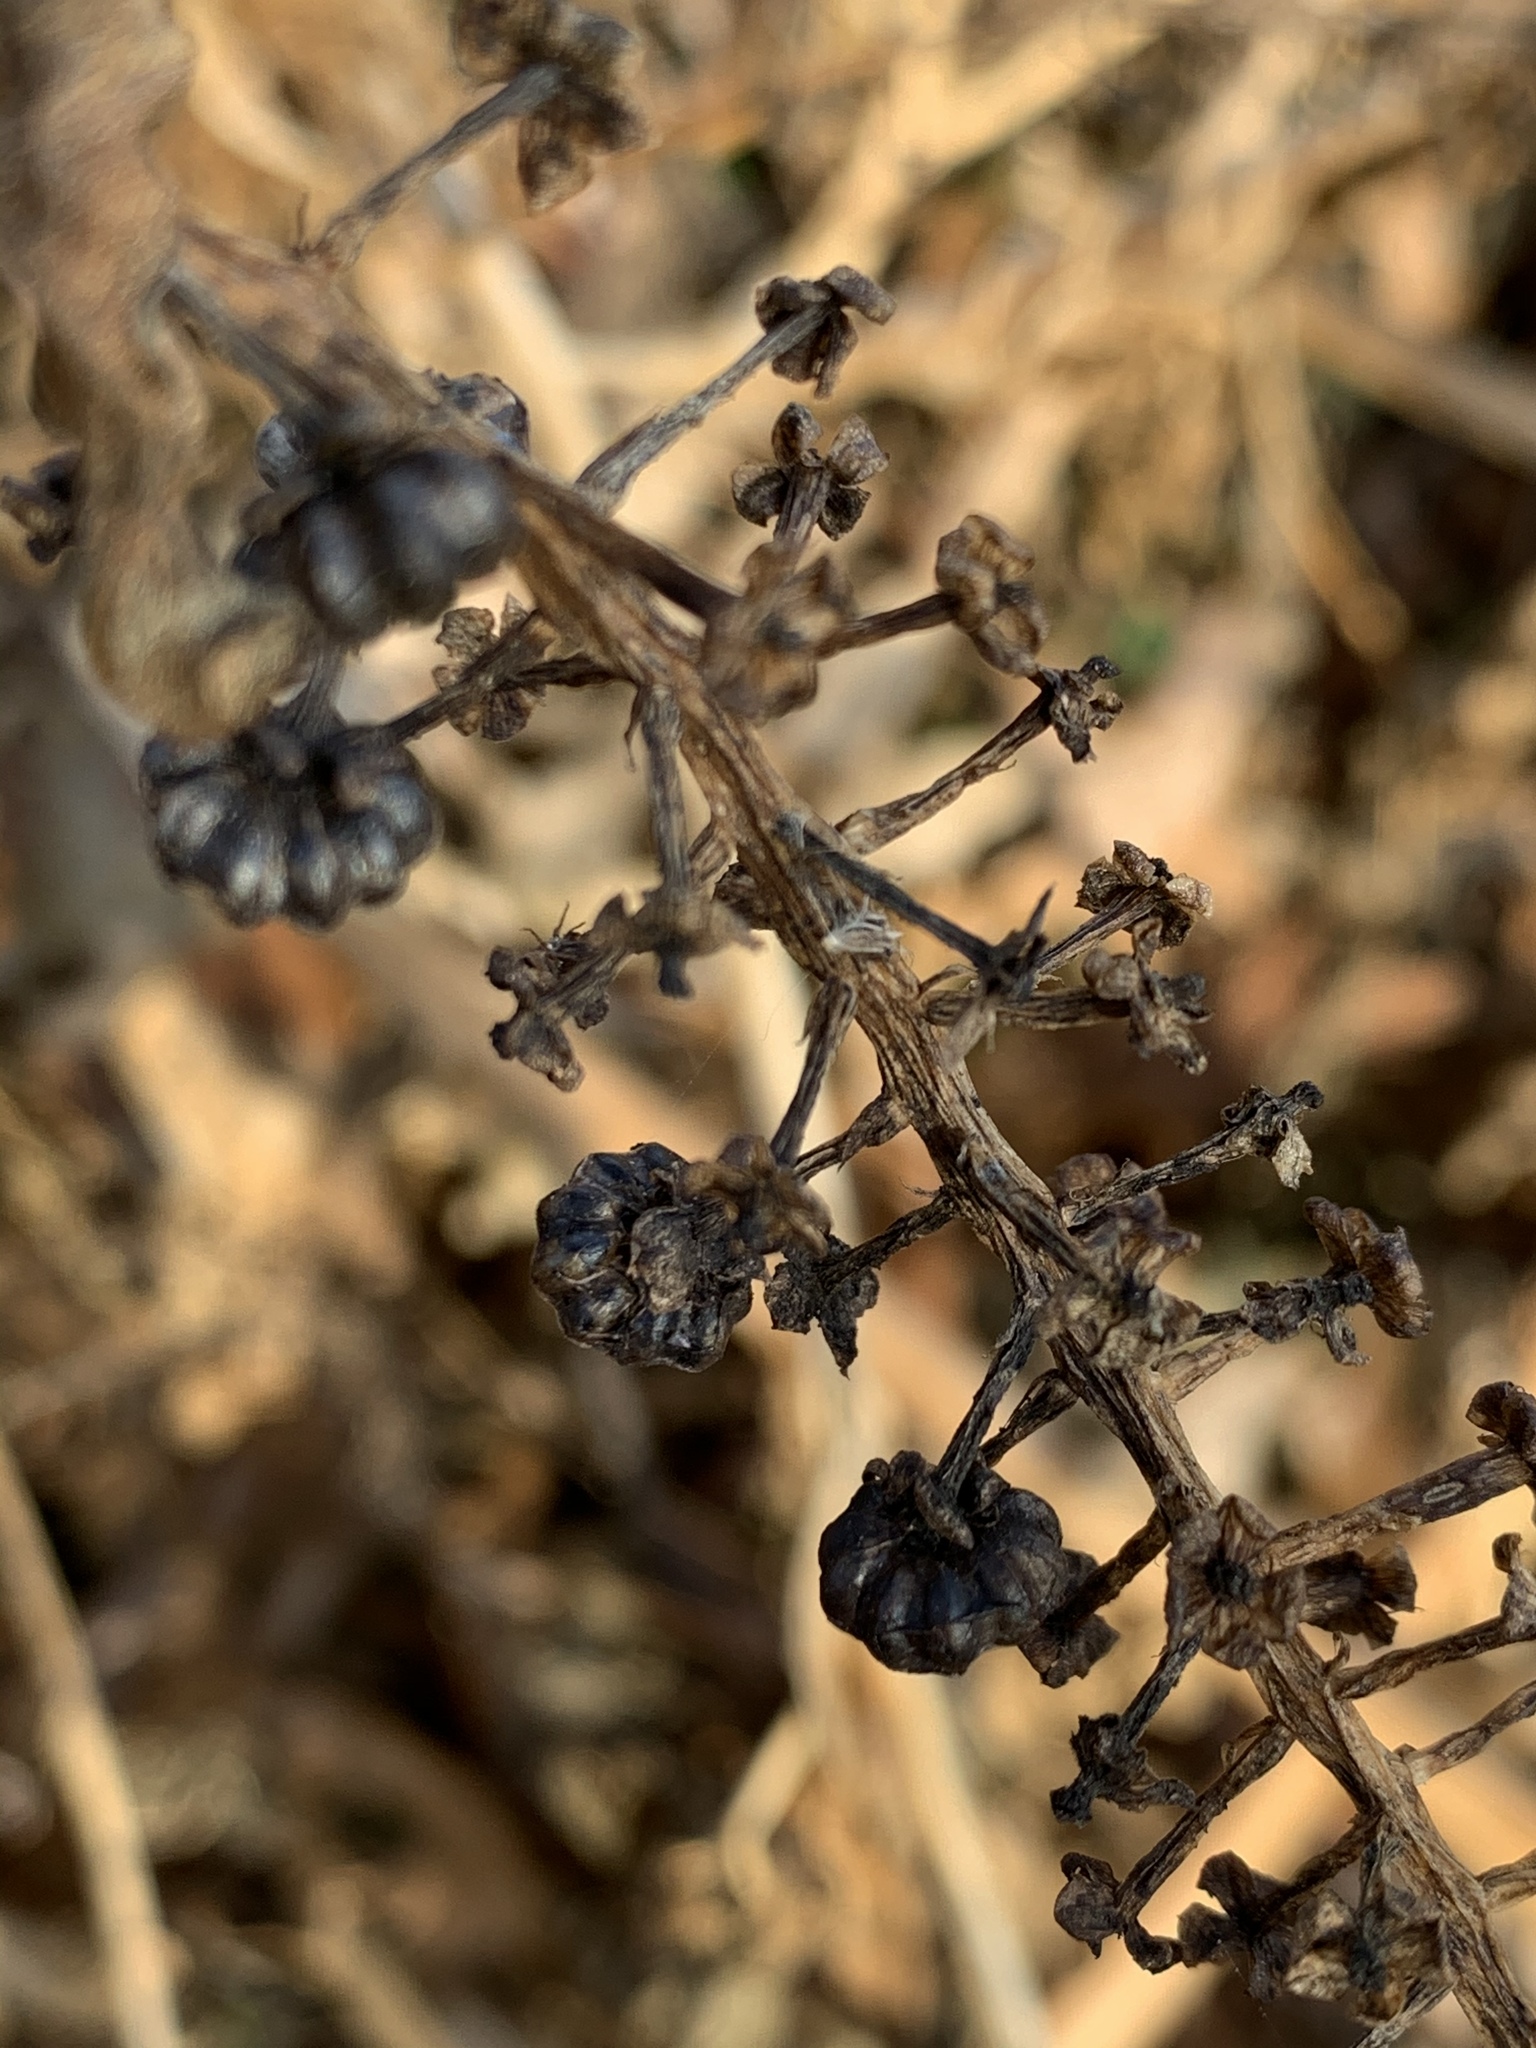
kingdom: Plantae
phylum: Tracheophyta
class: Magnoliopsida
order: Caryophyllales
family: Phytolaccaceae
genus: Phytolacca
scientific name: Phytolacca americana
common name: American pokeweed
